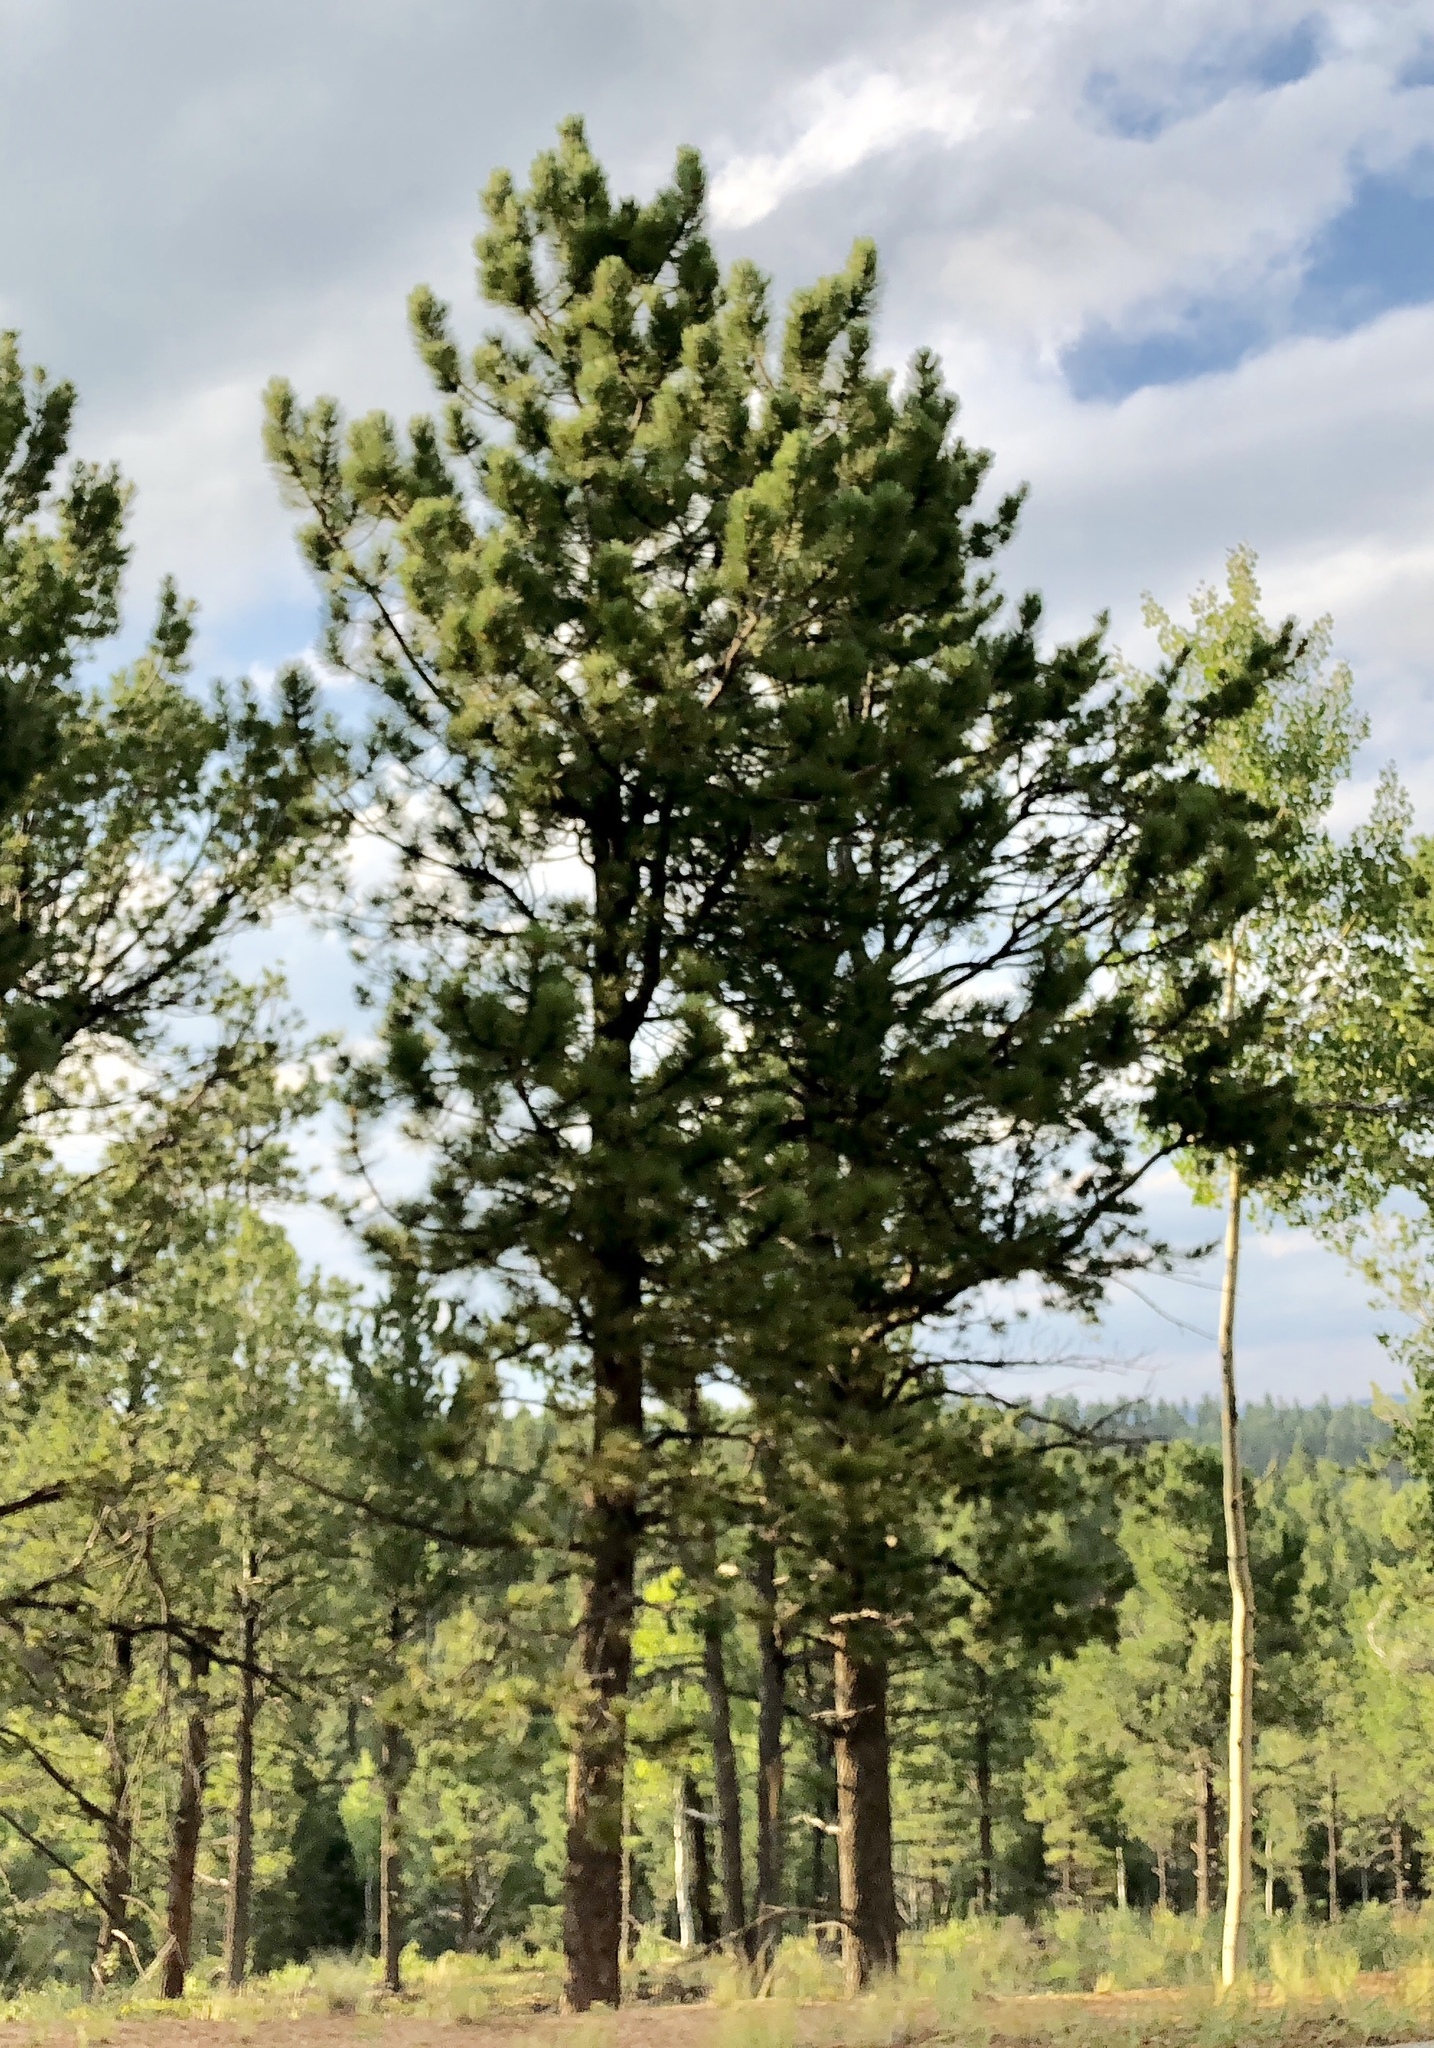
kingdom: Plantae
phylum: Tracheophyta
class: Pinopsida
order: Pinales
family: Pinaceae
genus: Pinus
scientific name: Pinus ponderosa
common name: Western yellow-pine
